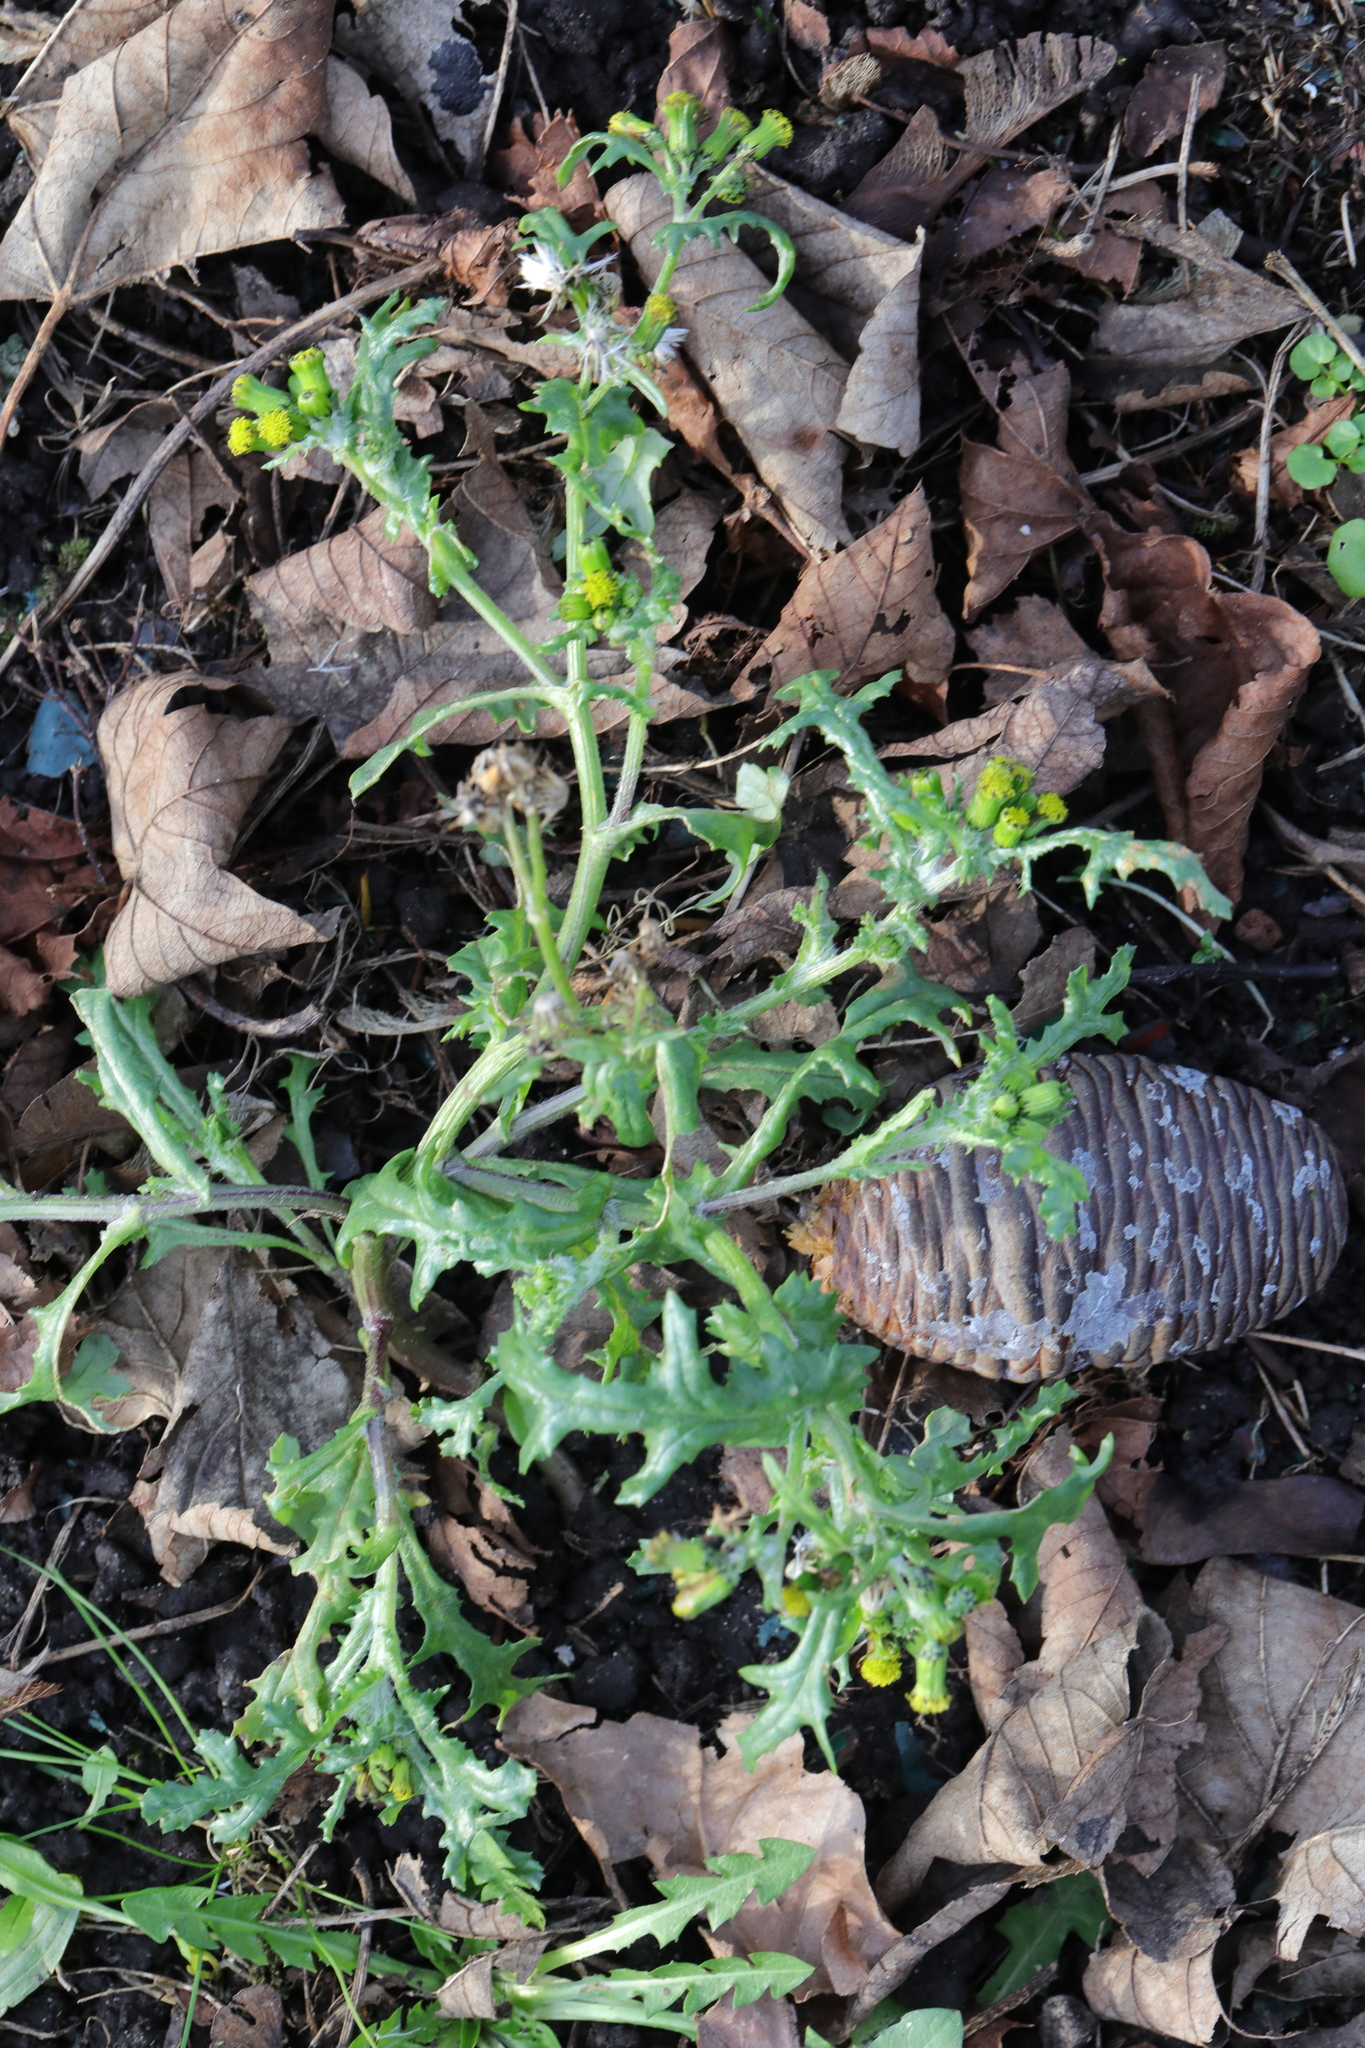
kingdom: Plantae
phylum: Tracheophyta
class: Magnoliopsida
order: Asterales
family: Asteraceae
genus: Senecio
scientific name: Senecio vulgaris
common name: Old-man-in-the-spring
